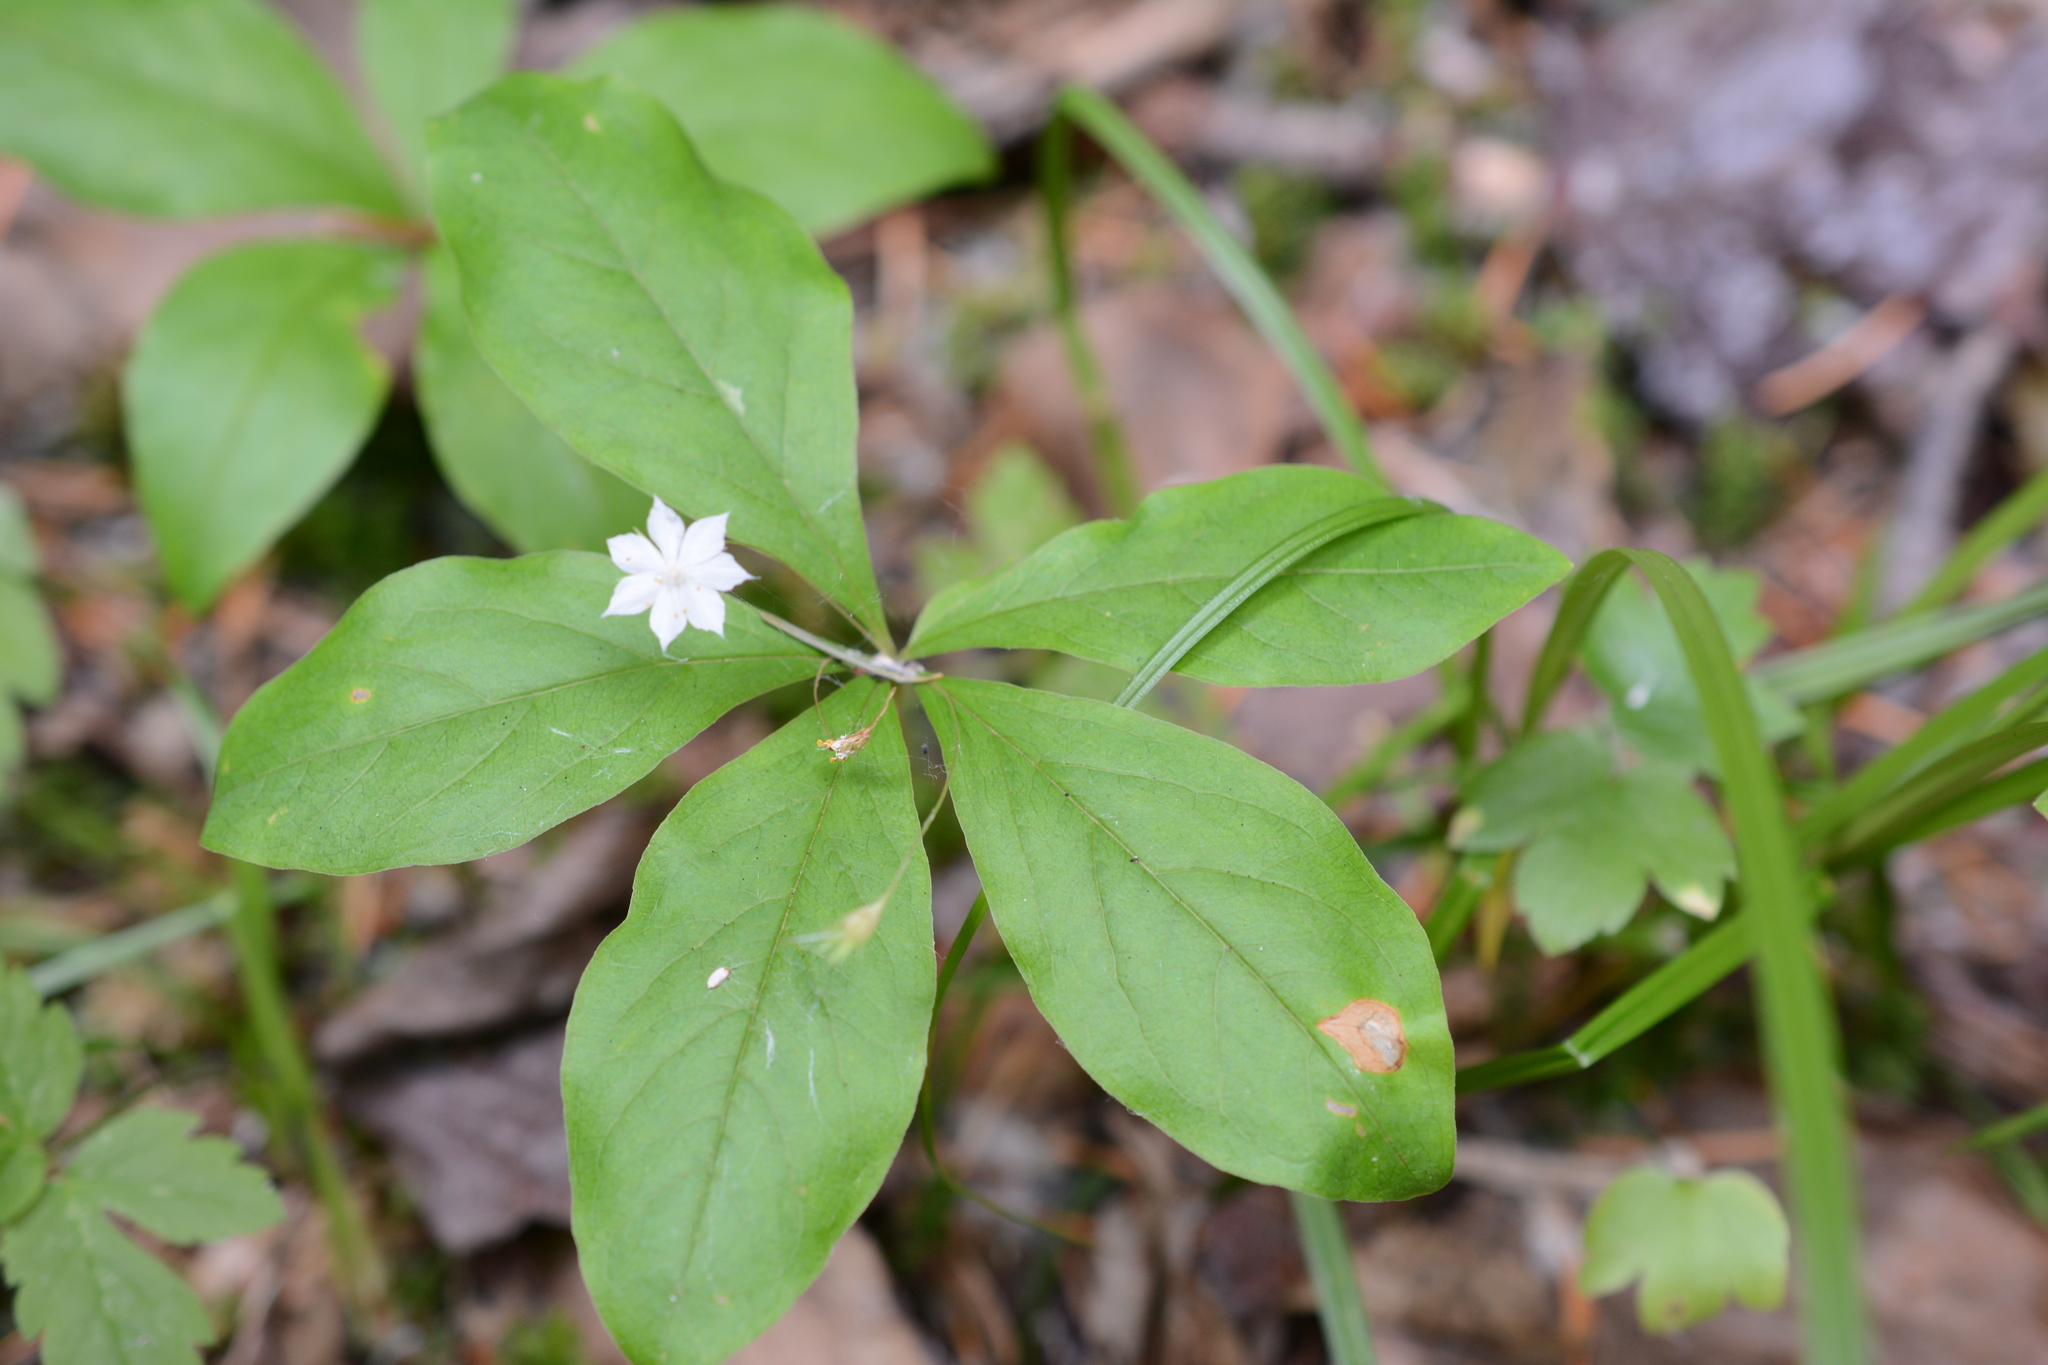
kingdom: Plantae
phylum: Tracheophyta
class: Magnoliopsida
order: Ericales
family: Primulaceae
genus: Lysimachia
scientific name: Lysimachia latifolia
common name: Pacific starflower
